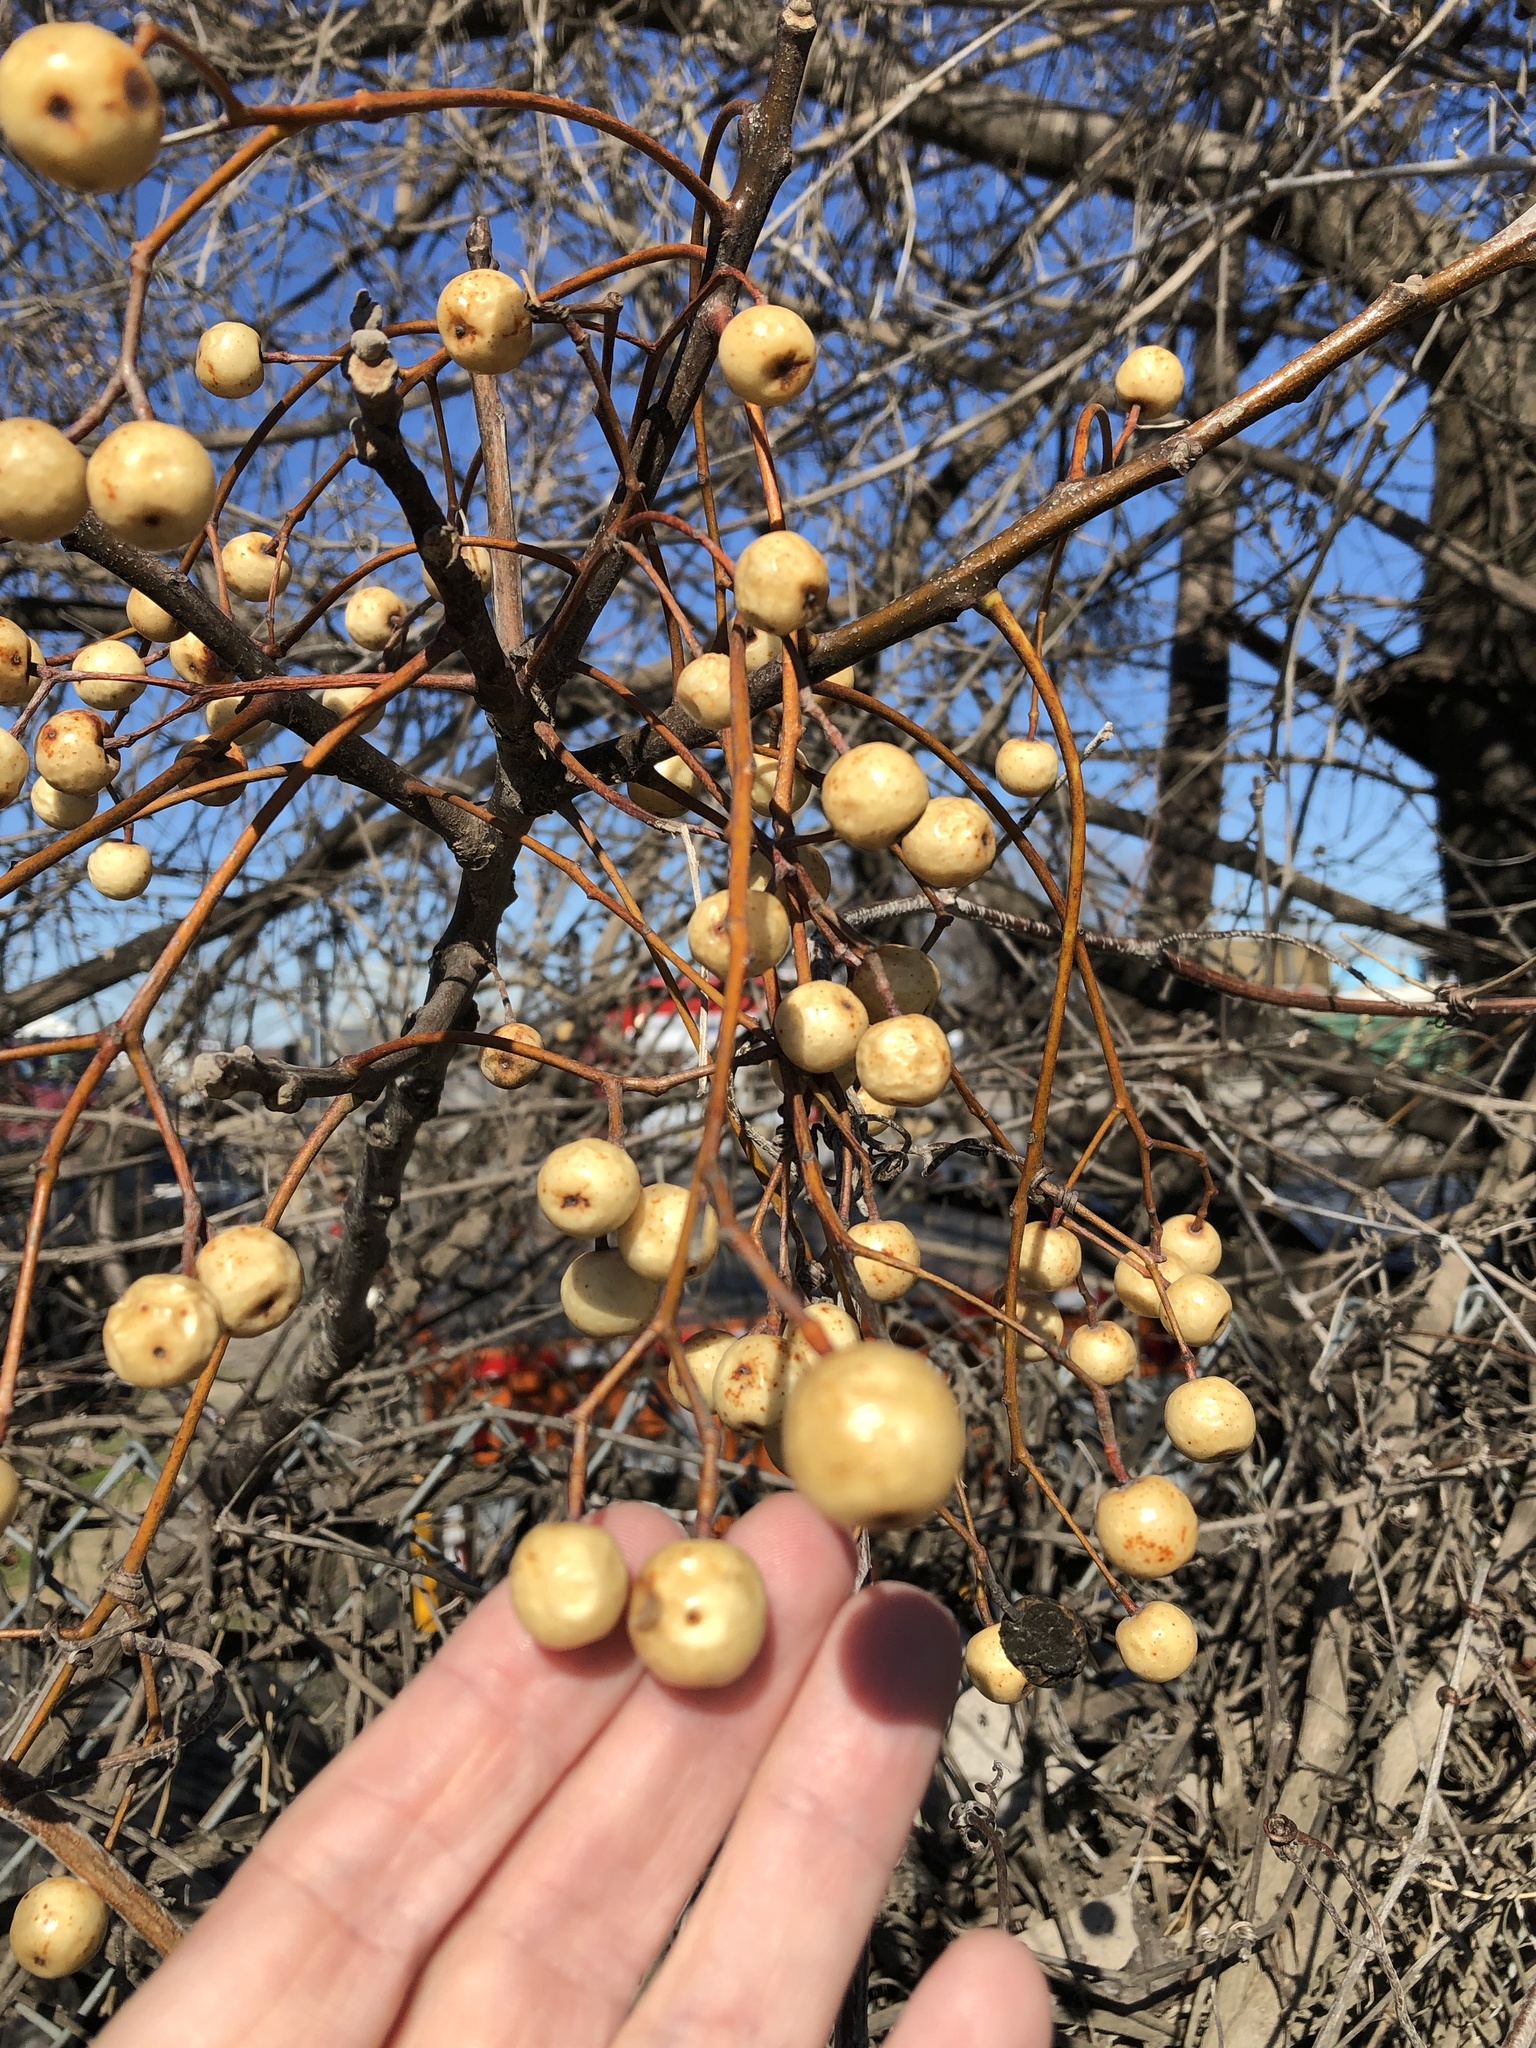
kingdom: Plantae
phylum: Tracheophyta
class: Magnoliopsida
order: Sapindales
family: Meliaceae
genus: Melia
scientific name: Melia azedarach
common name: Chinaberrytree
